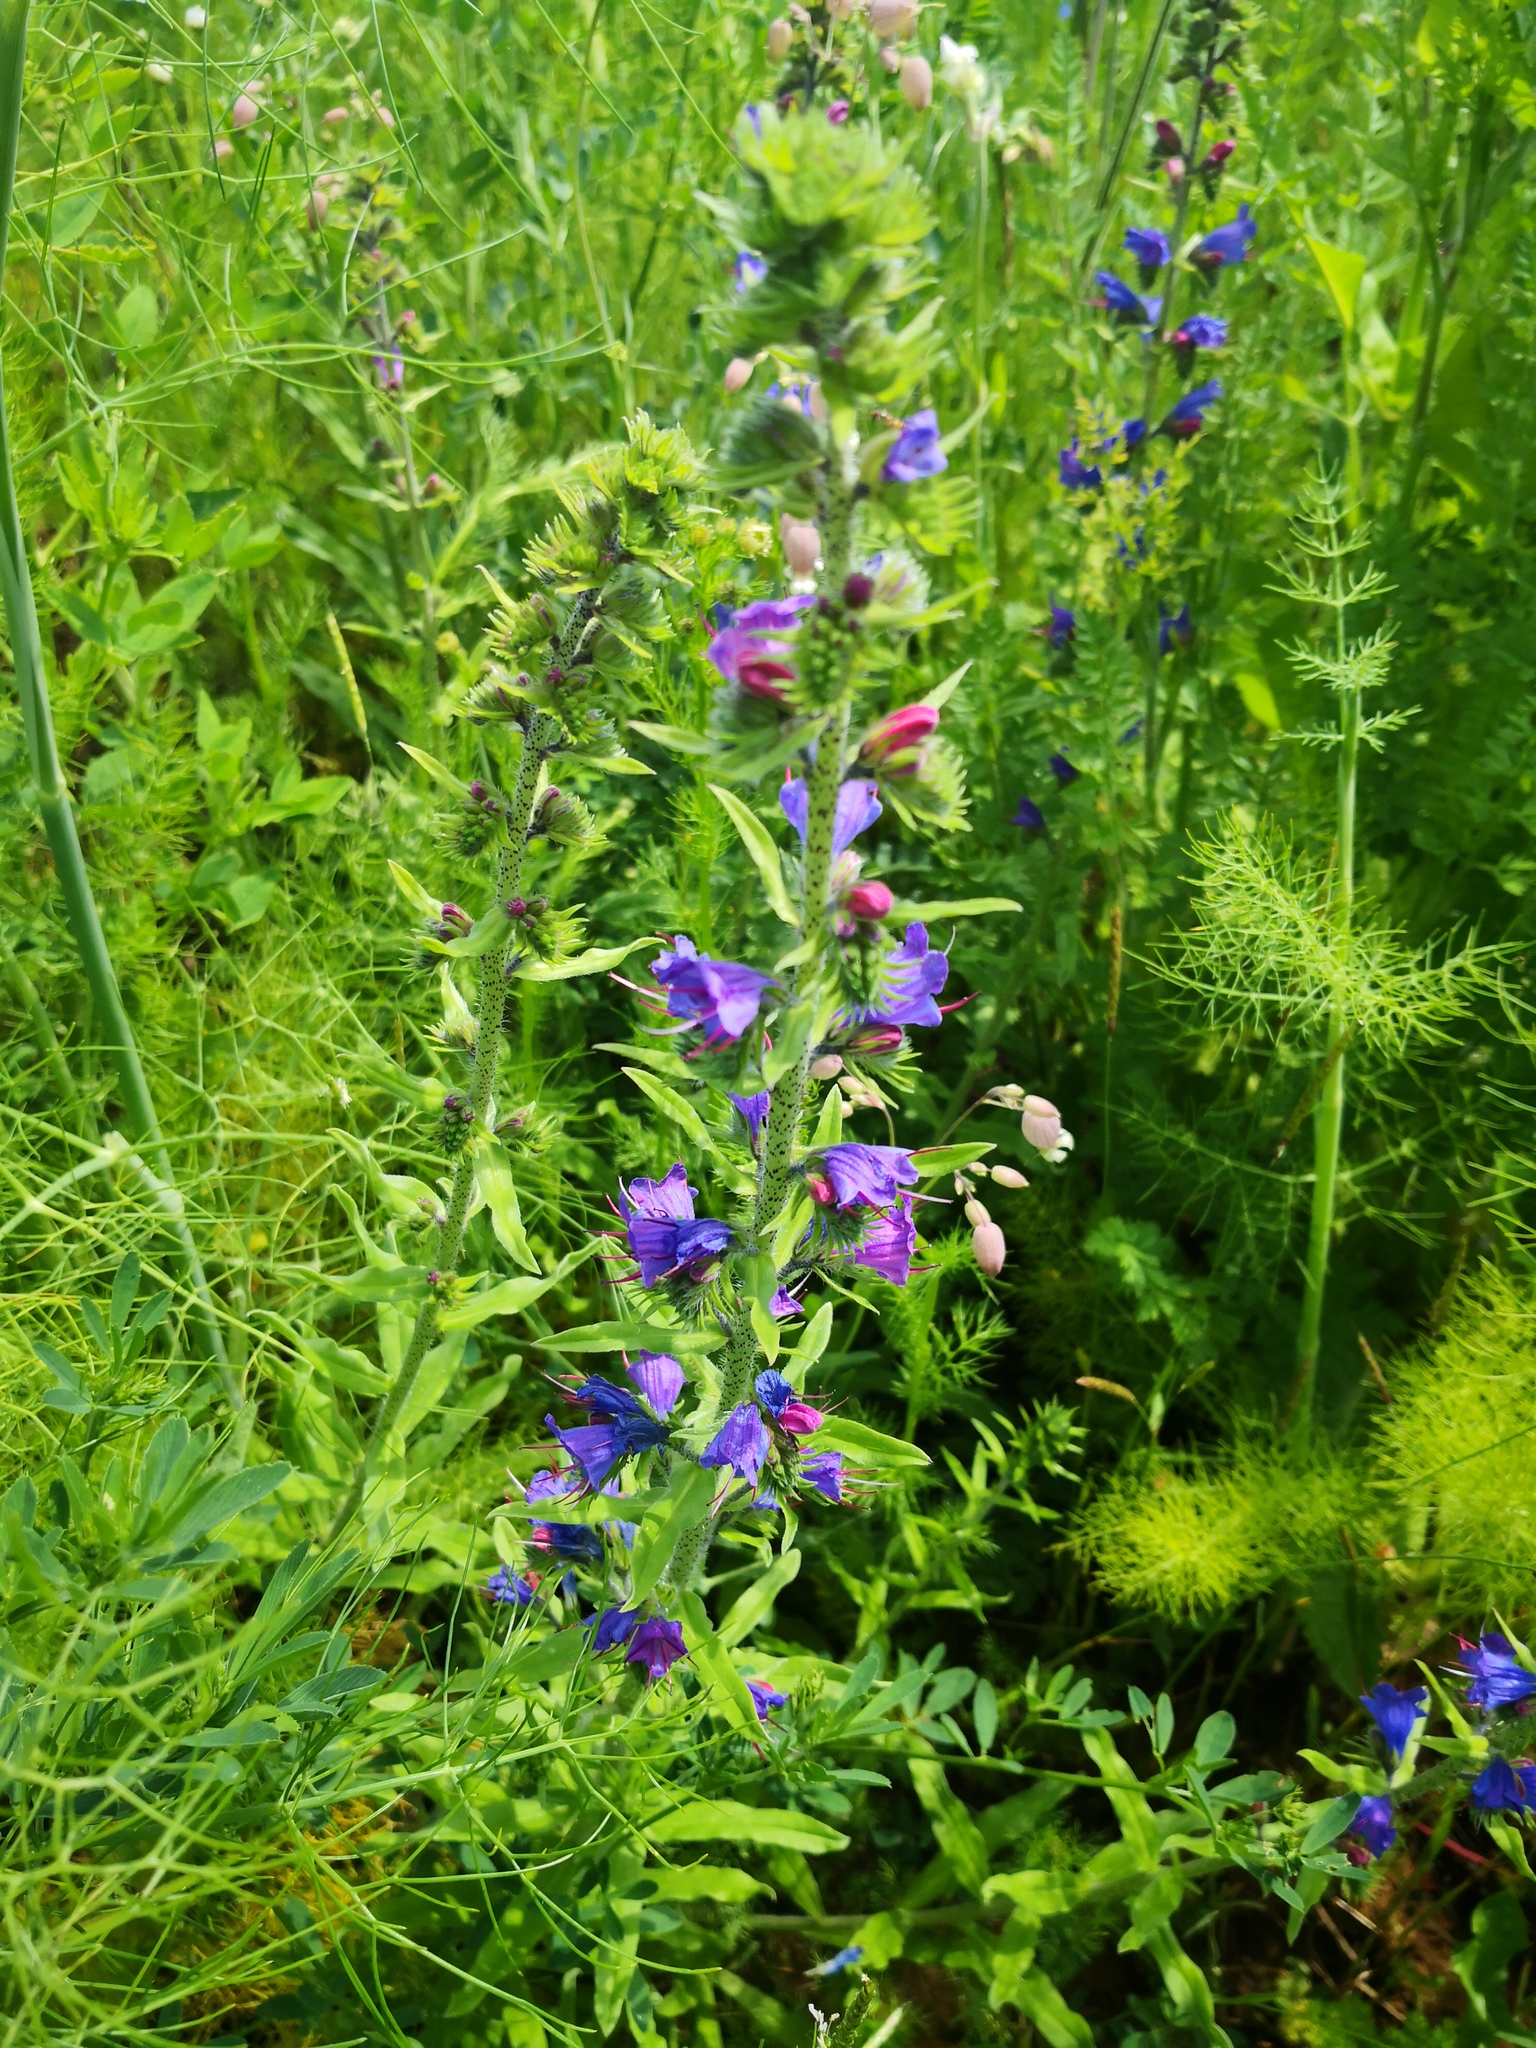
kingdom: Plantae
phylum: Tracheophyta
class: Magnoliopsida
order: Boraginales
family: Boraginaceae
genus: Echium
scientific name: Echium vulgare
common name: Common viper's bugloss
